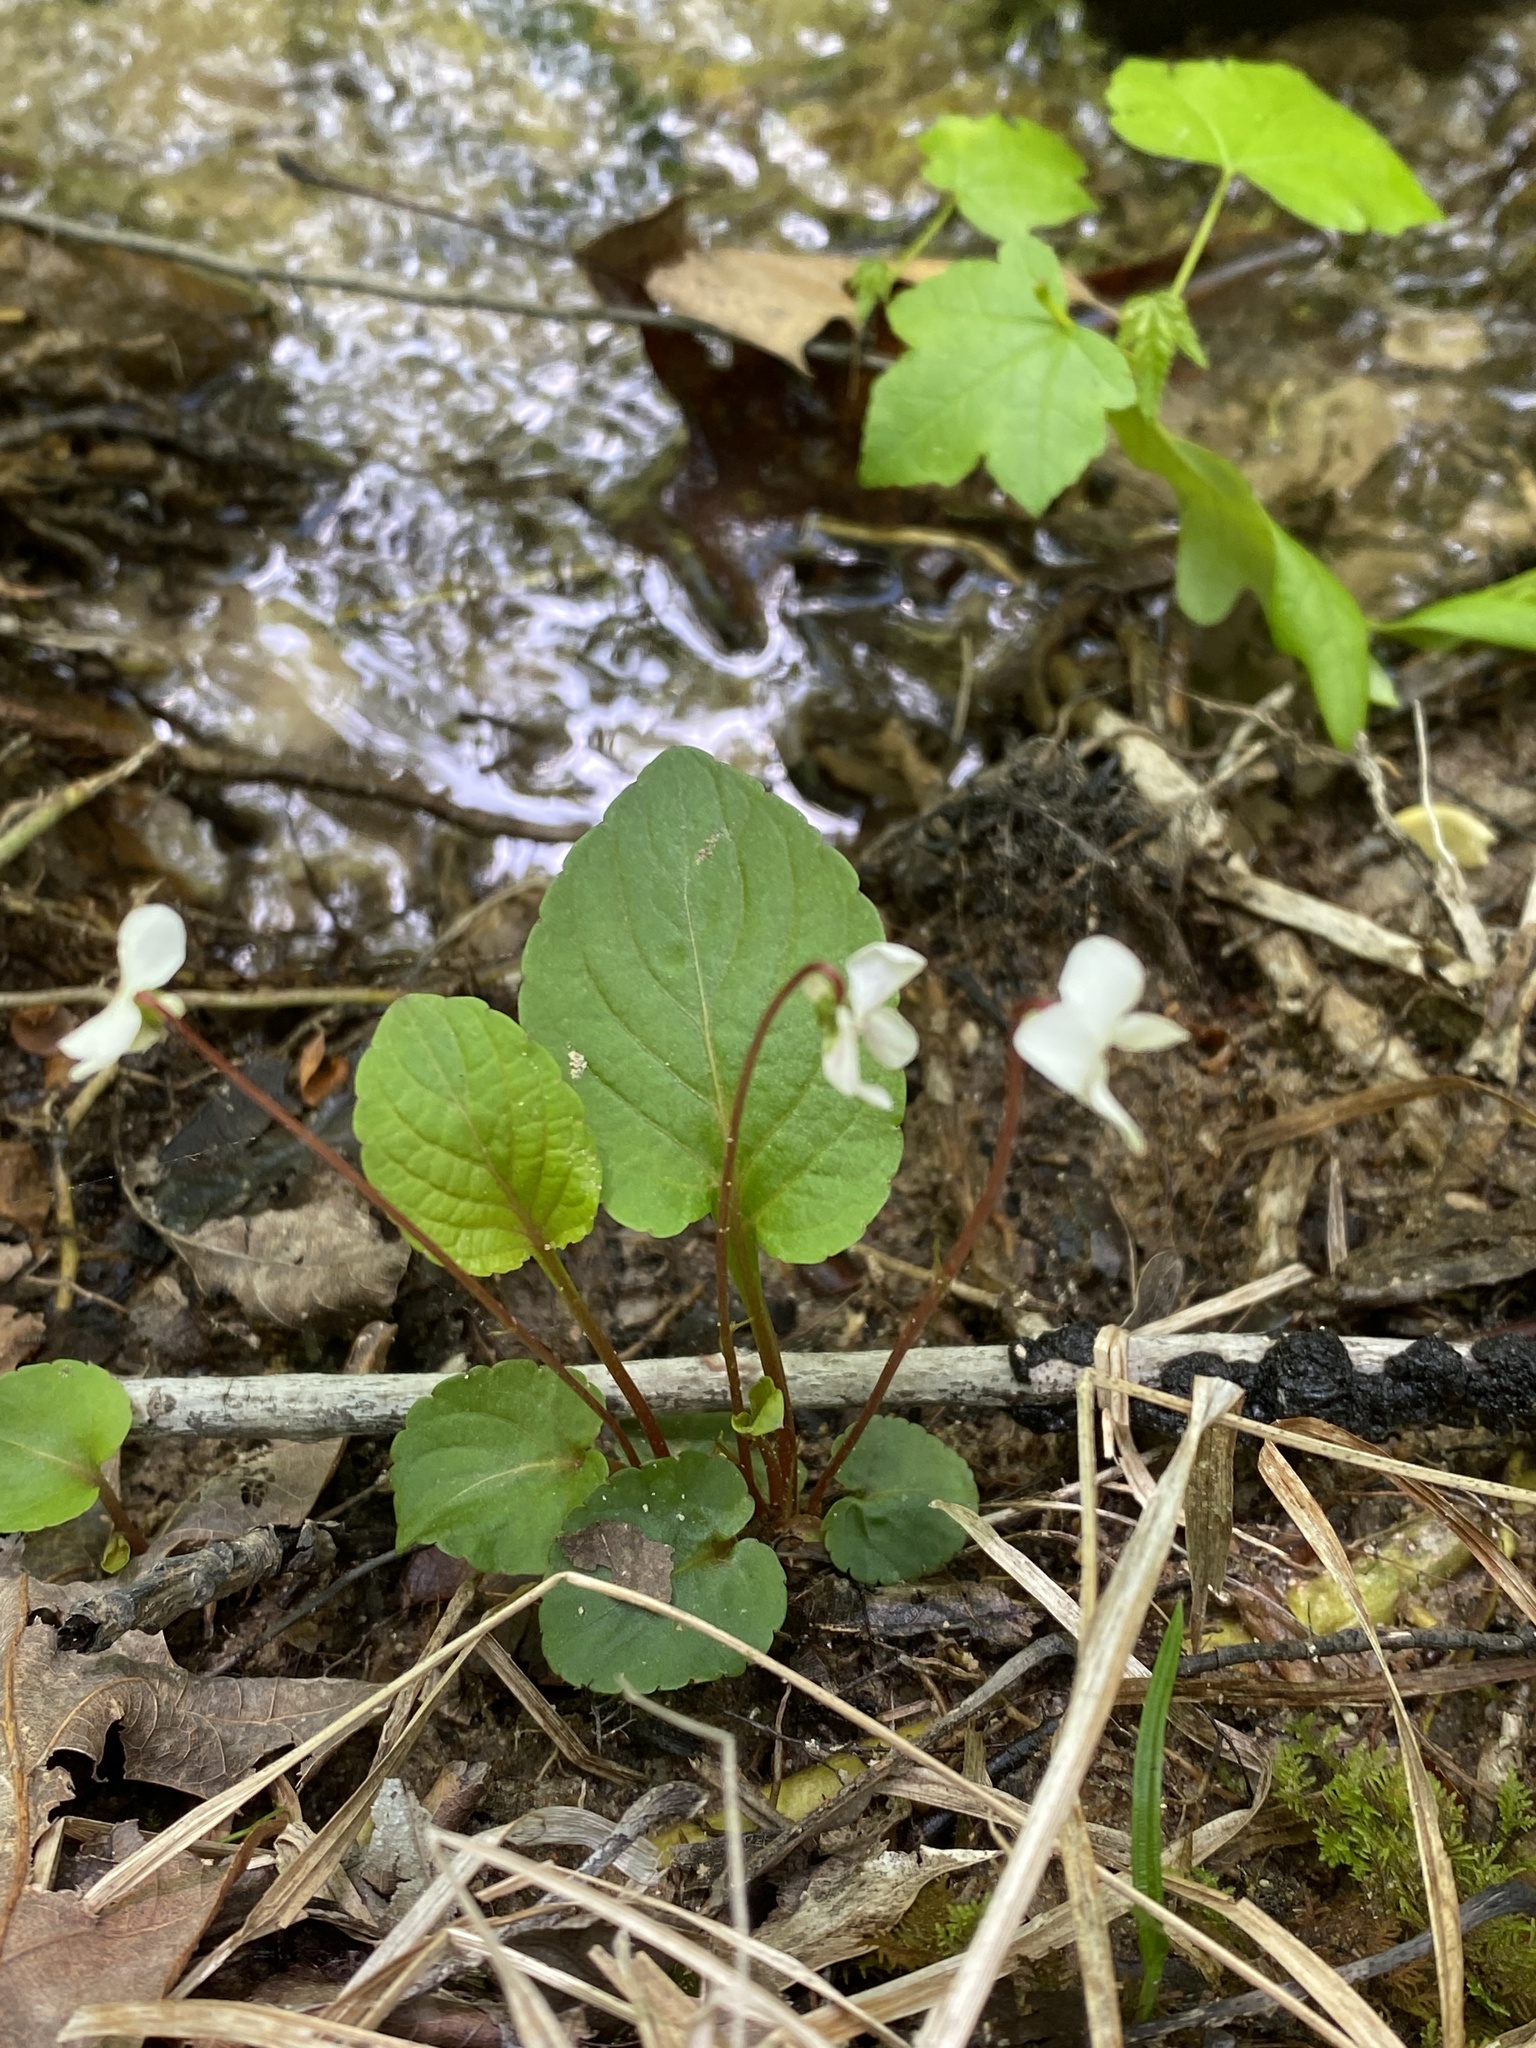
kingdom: Plantae
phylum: Tracheophyta
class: Magnoliopsida
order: Malpighiales
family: Violaceae
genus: Viola
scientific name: Viola primulifolia
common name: Primrose-leaf violet
